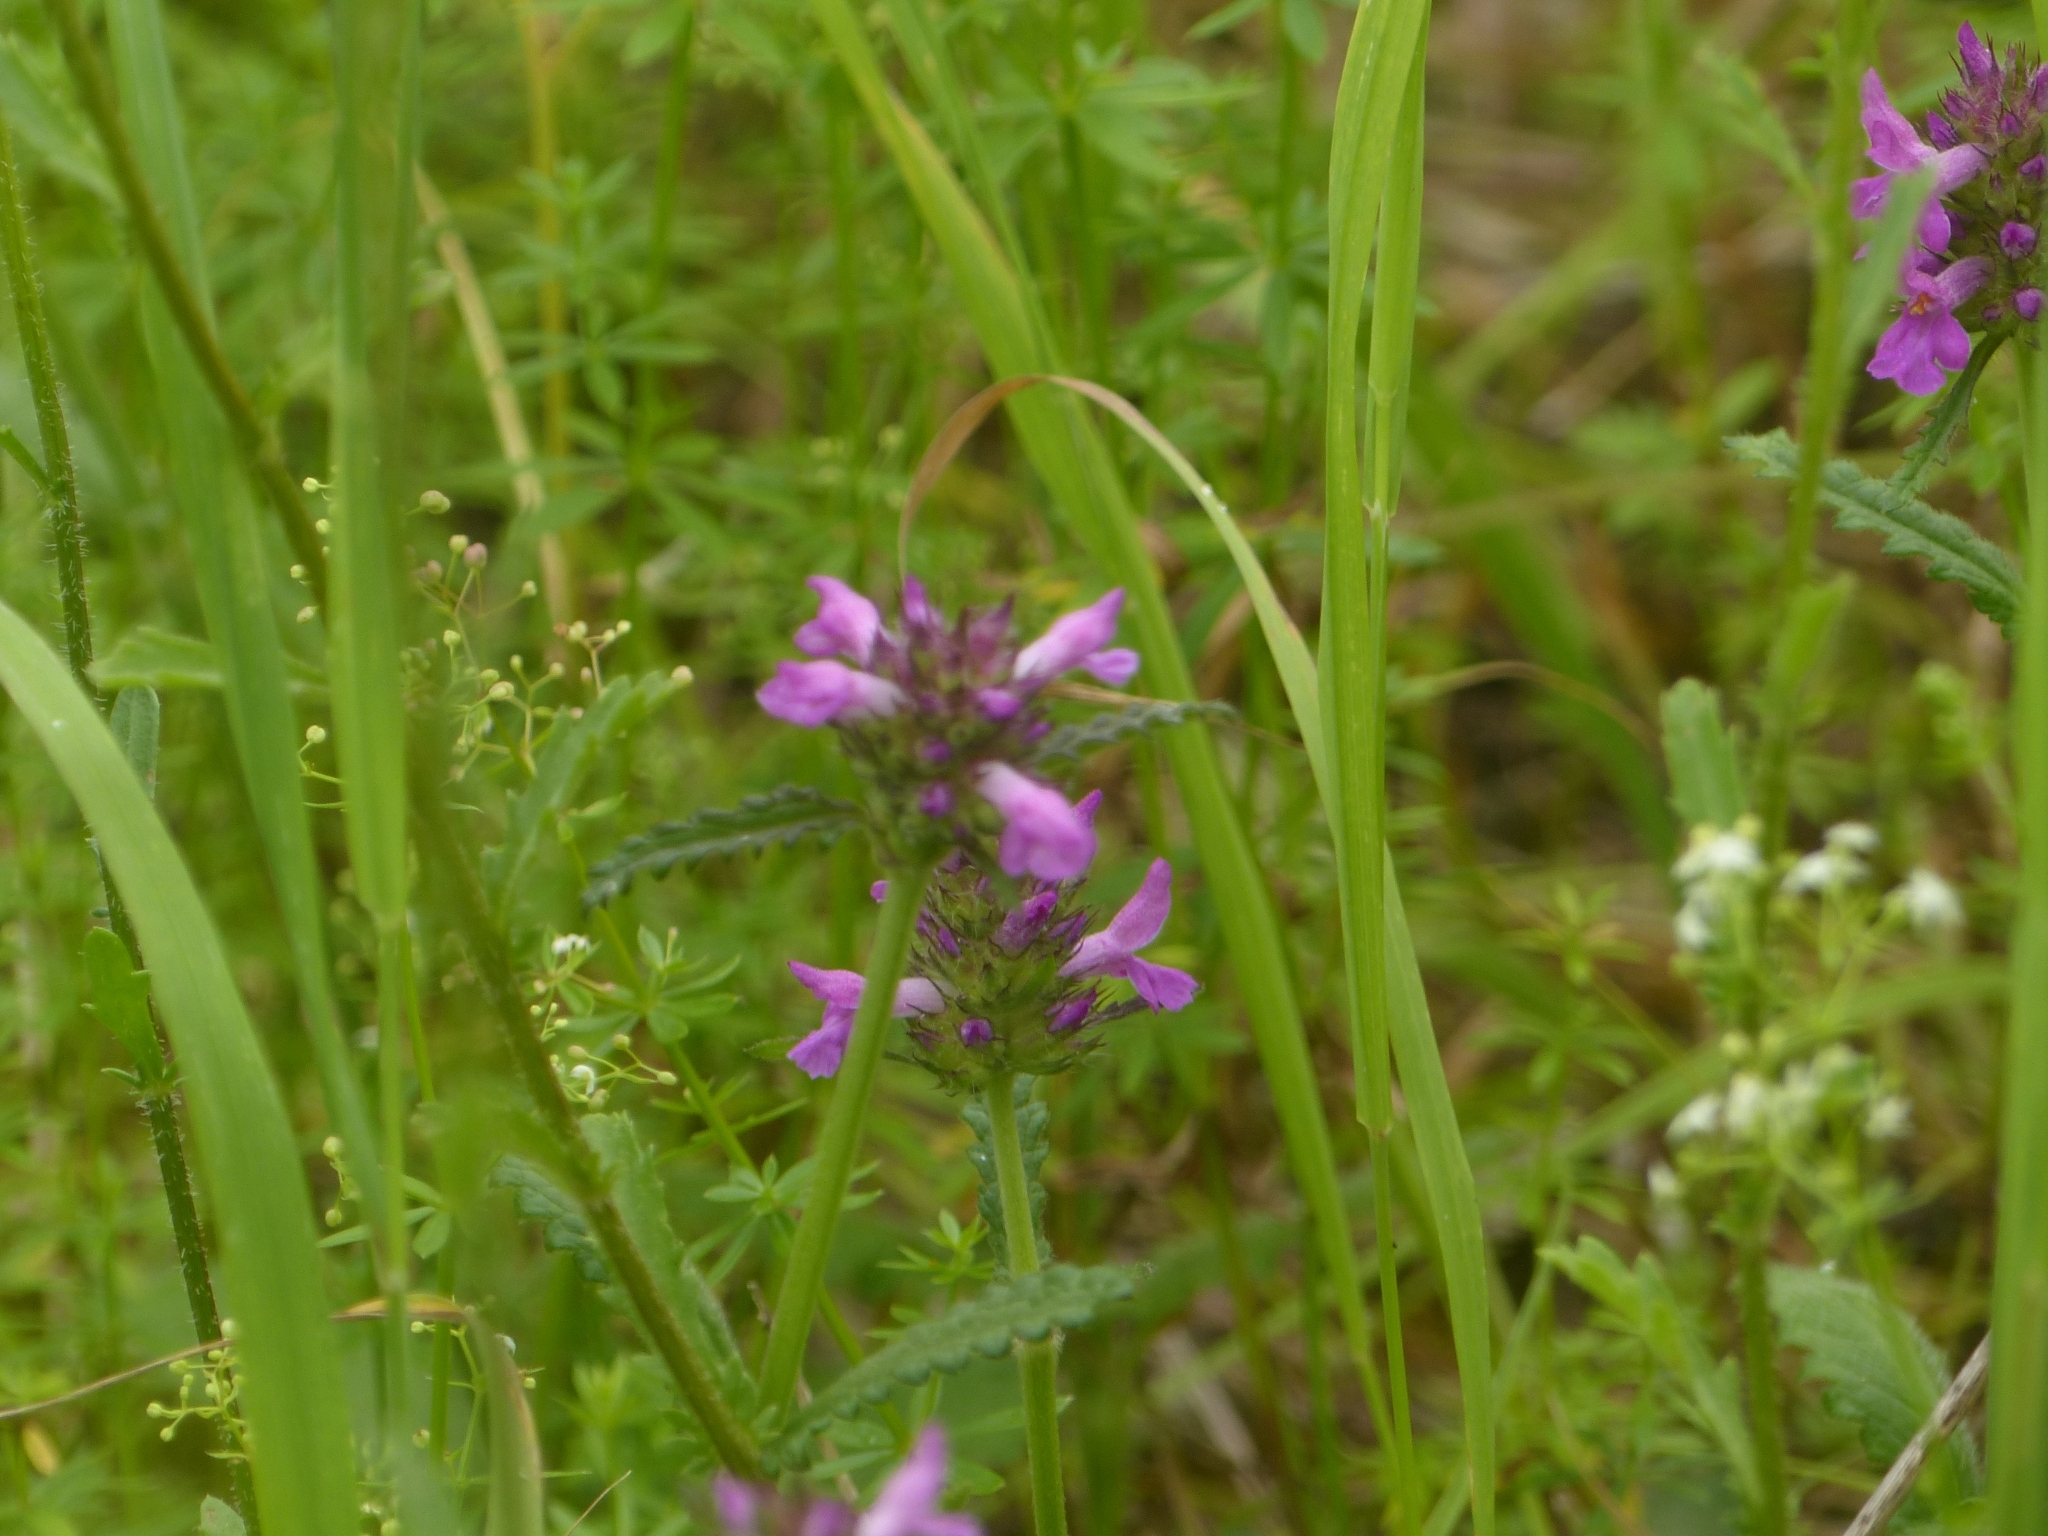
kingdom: Plantae
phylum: Tracheophyta
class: Magnoliopsida
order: Lamiales
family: Lamiaceae
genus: Betonica
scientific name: Betonica officinalis
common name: Bishop's-wort
